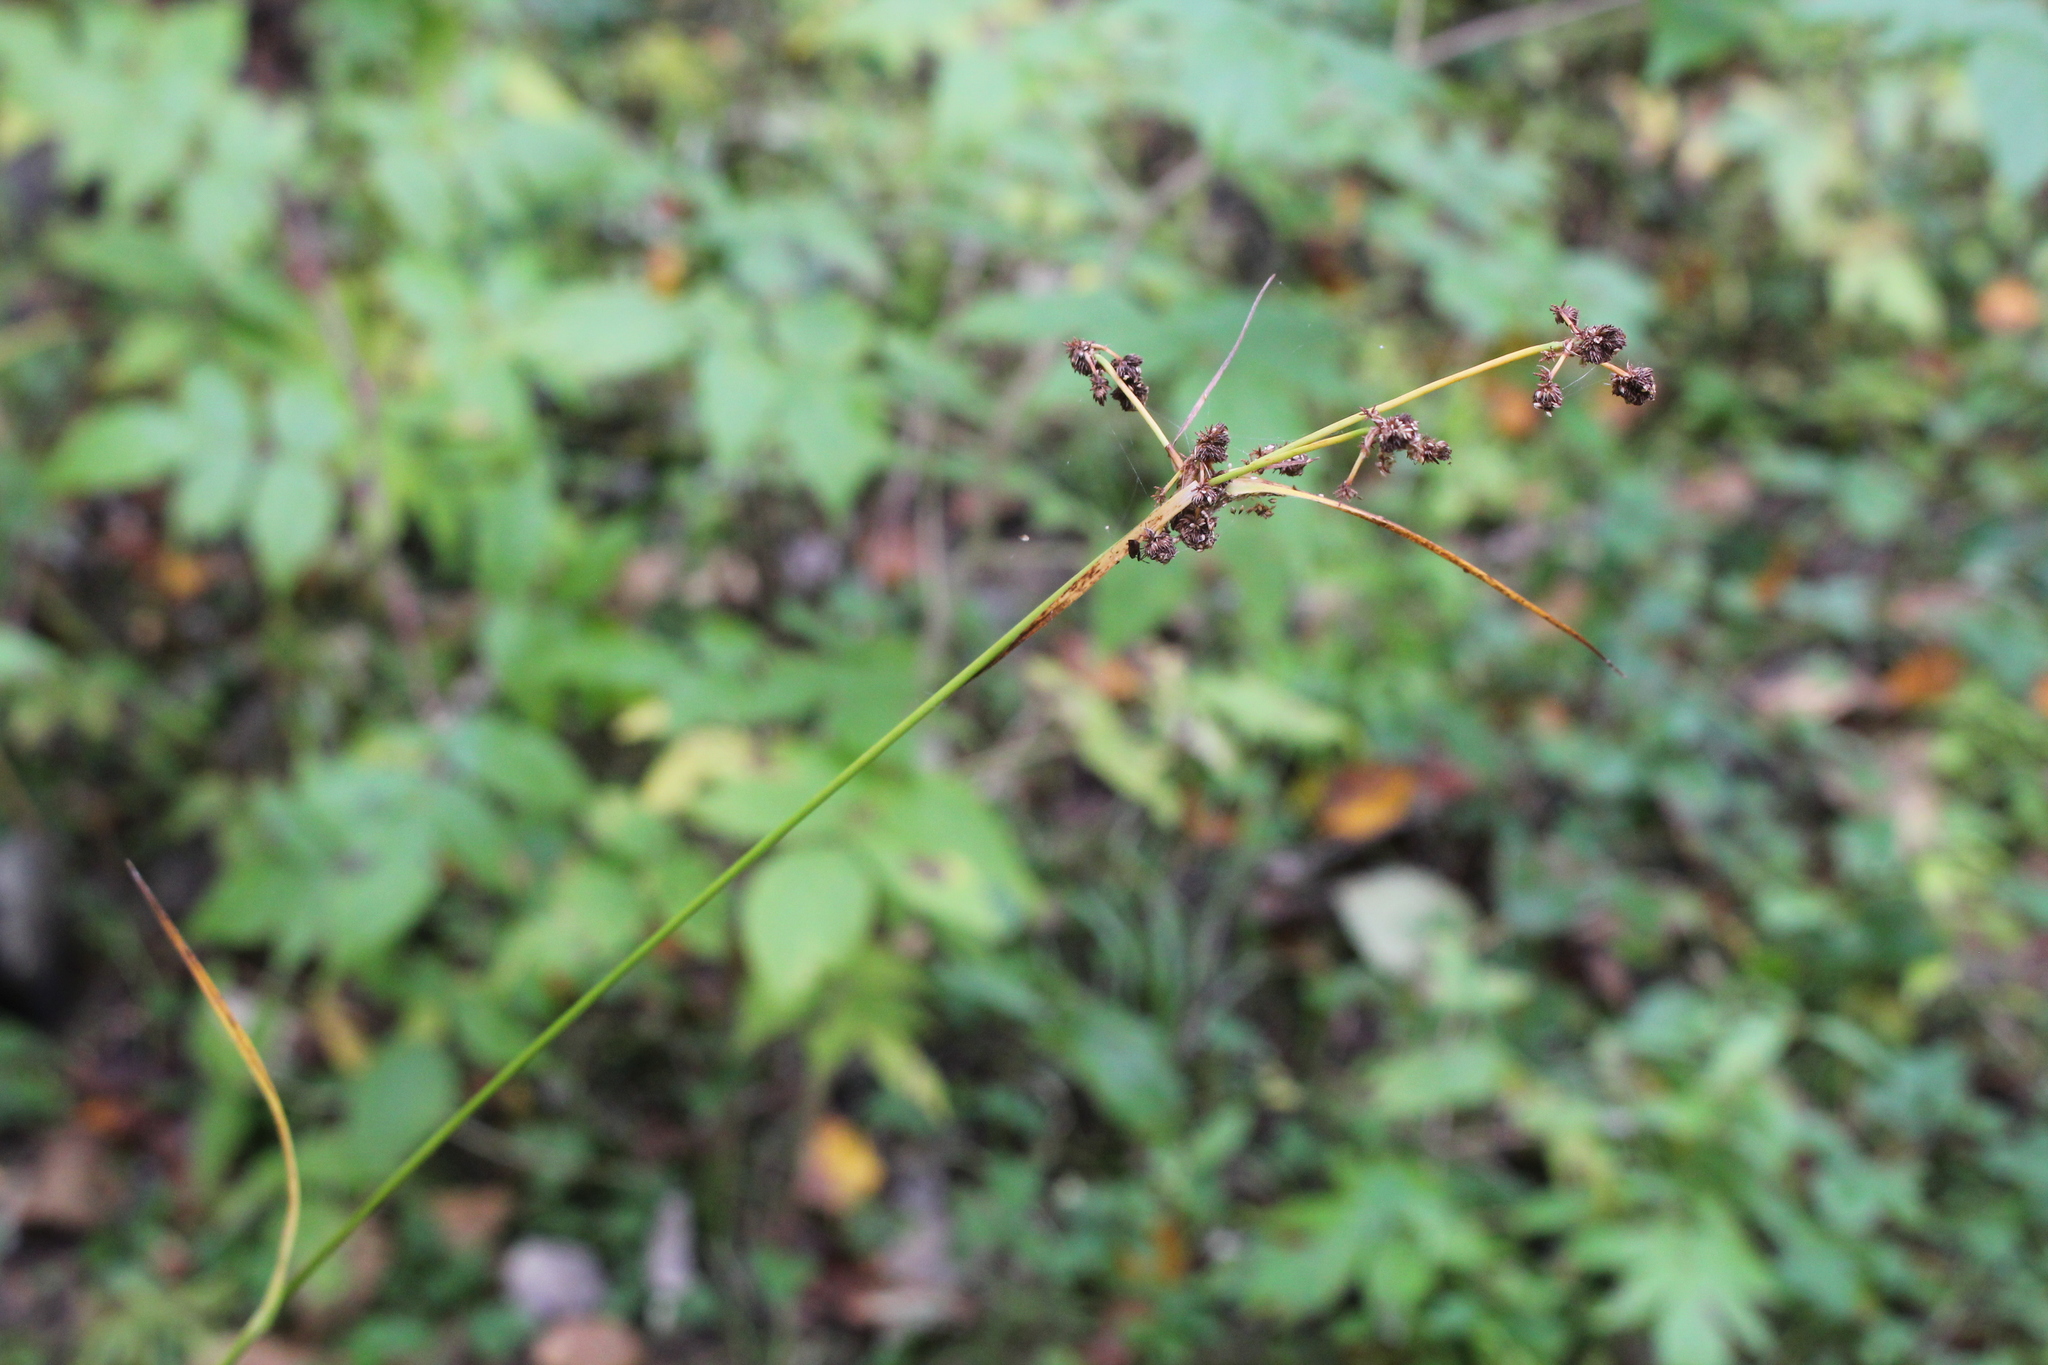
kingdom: Plantae
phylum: Tracheophyta
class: Liliopsida
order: Poales
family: Cyperaceae
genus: Scirpus
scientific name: Scirpus hattorianus
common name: Early dark-green bulrush
